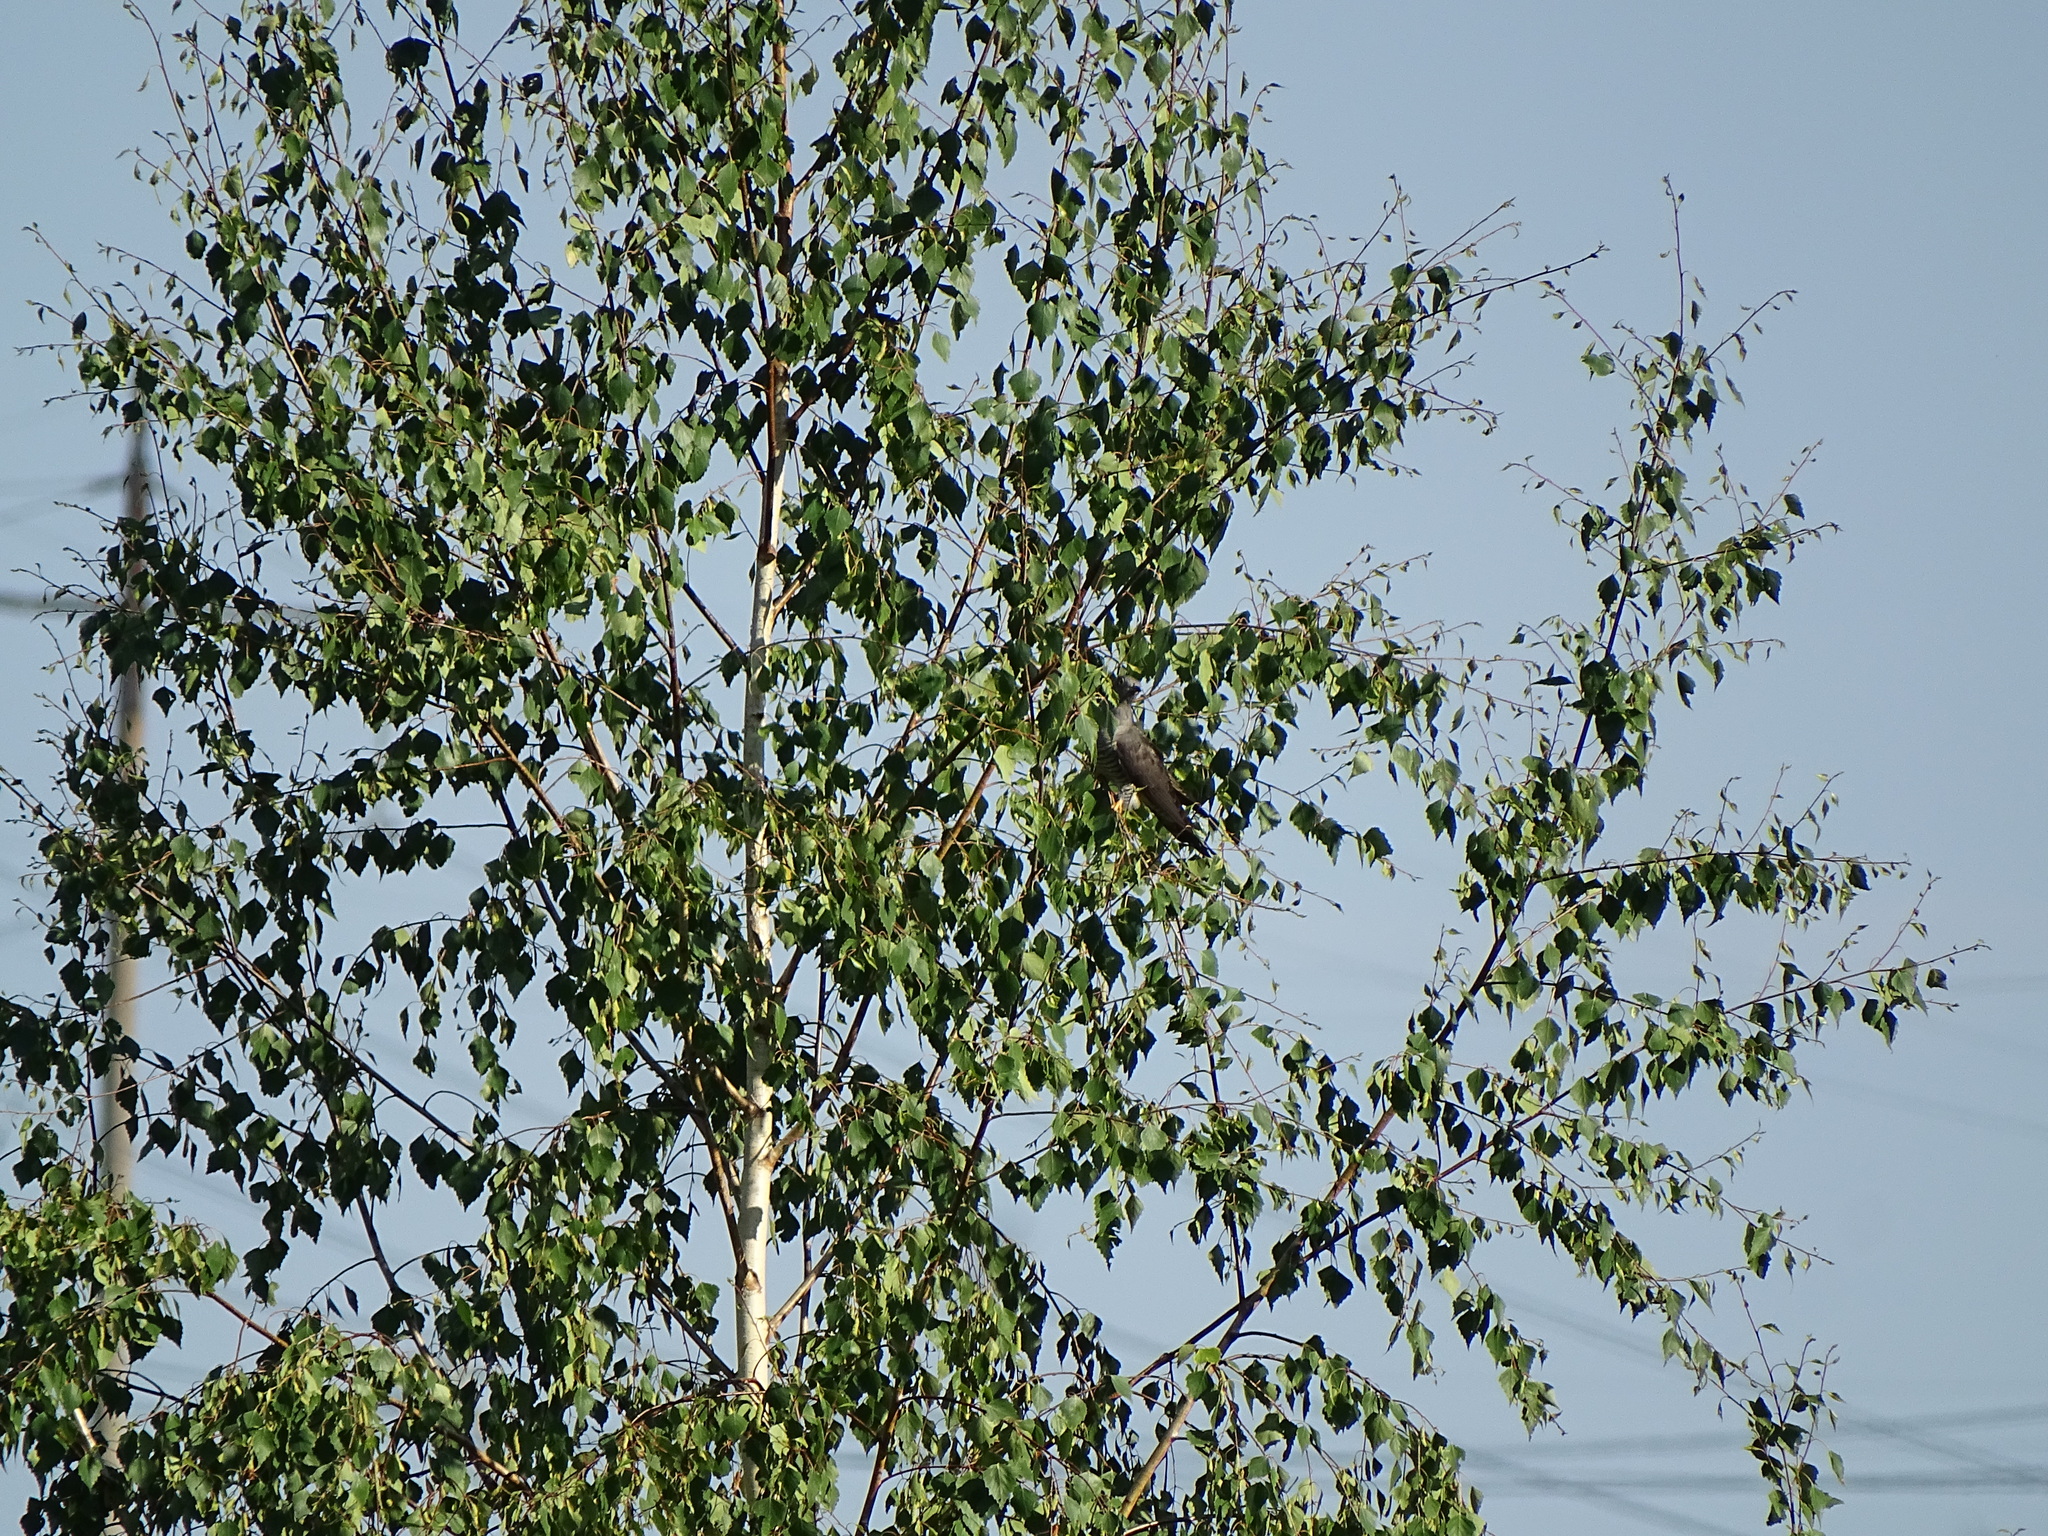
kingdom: Animalia
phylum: Chordata
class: Aves
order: Cuculiformes
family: Cuculidae
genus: Cuculus
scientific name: Cuculus canorus
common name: Common cuckoo
